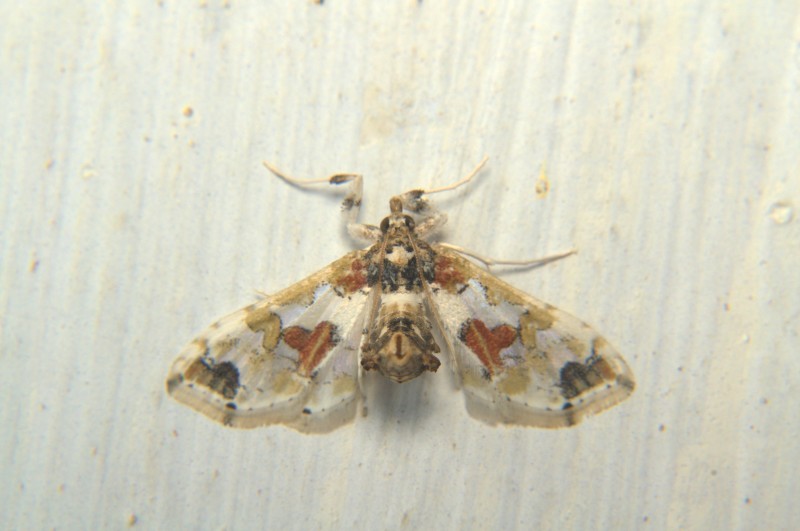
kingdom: Animalia
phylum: Arthropoda
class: Insecta
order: Lepidoptera
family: Crambidae
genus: Leucinodes
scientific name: Leucinodes orbonalis
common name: Aubergine pearl
